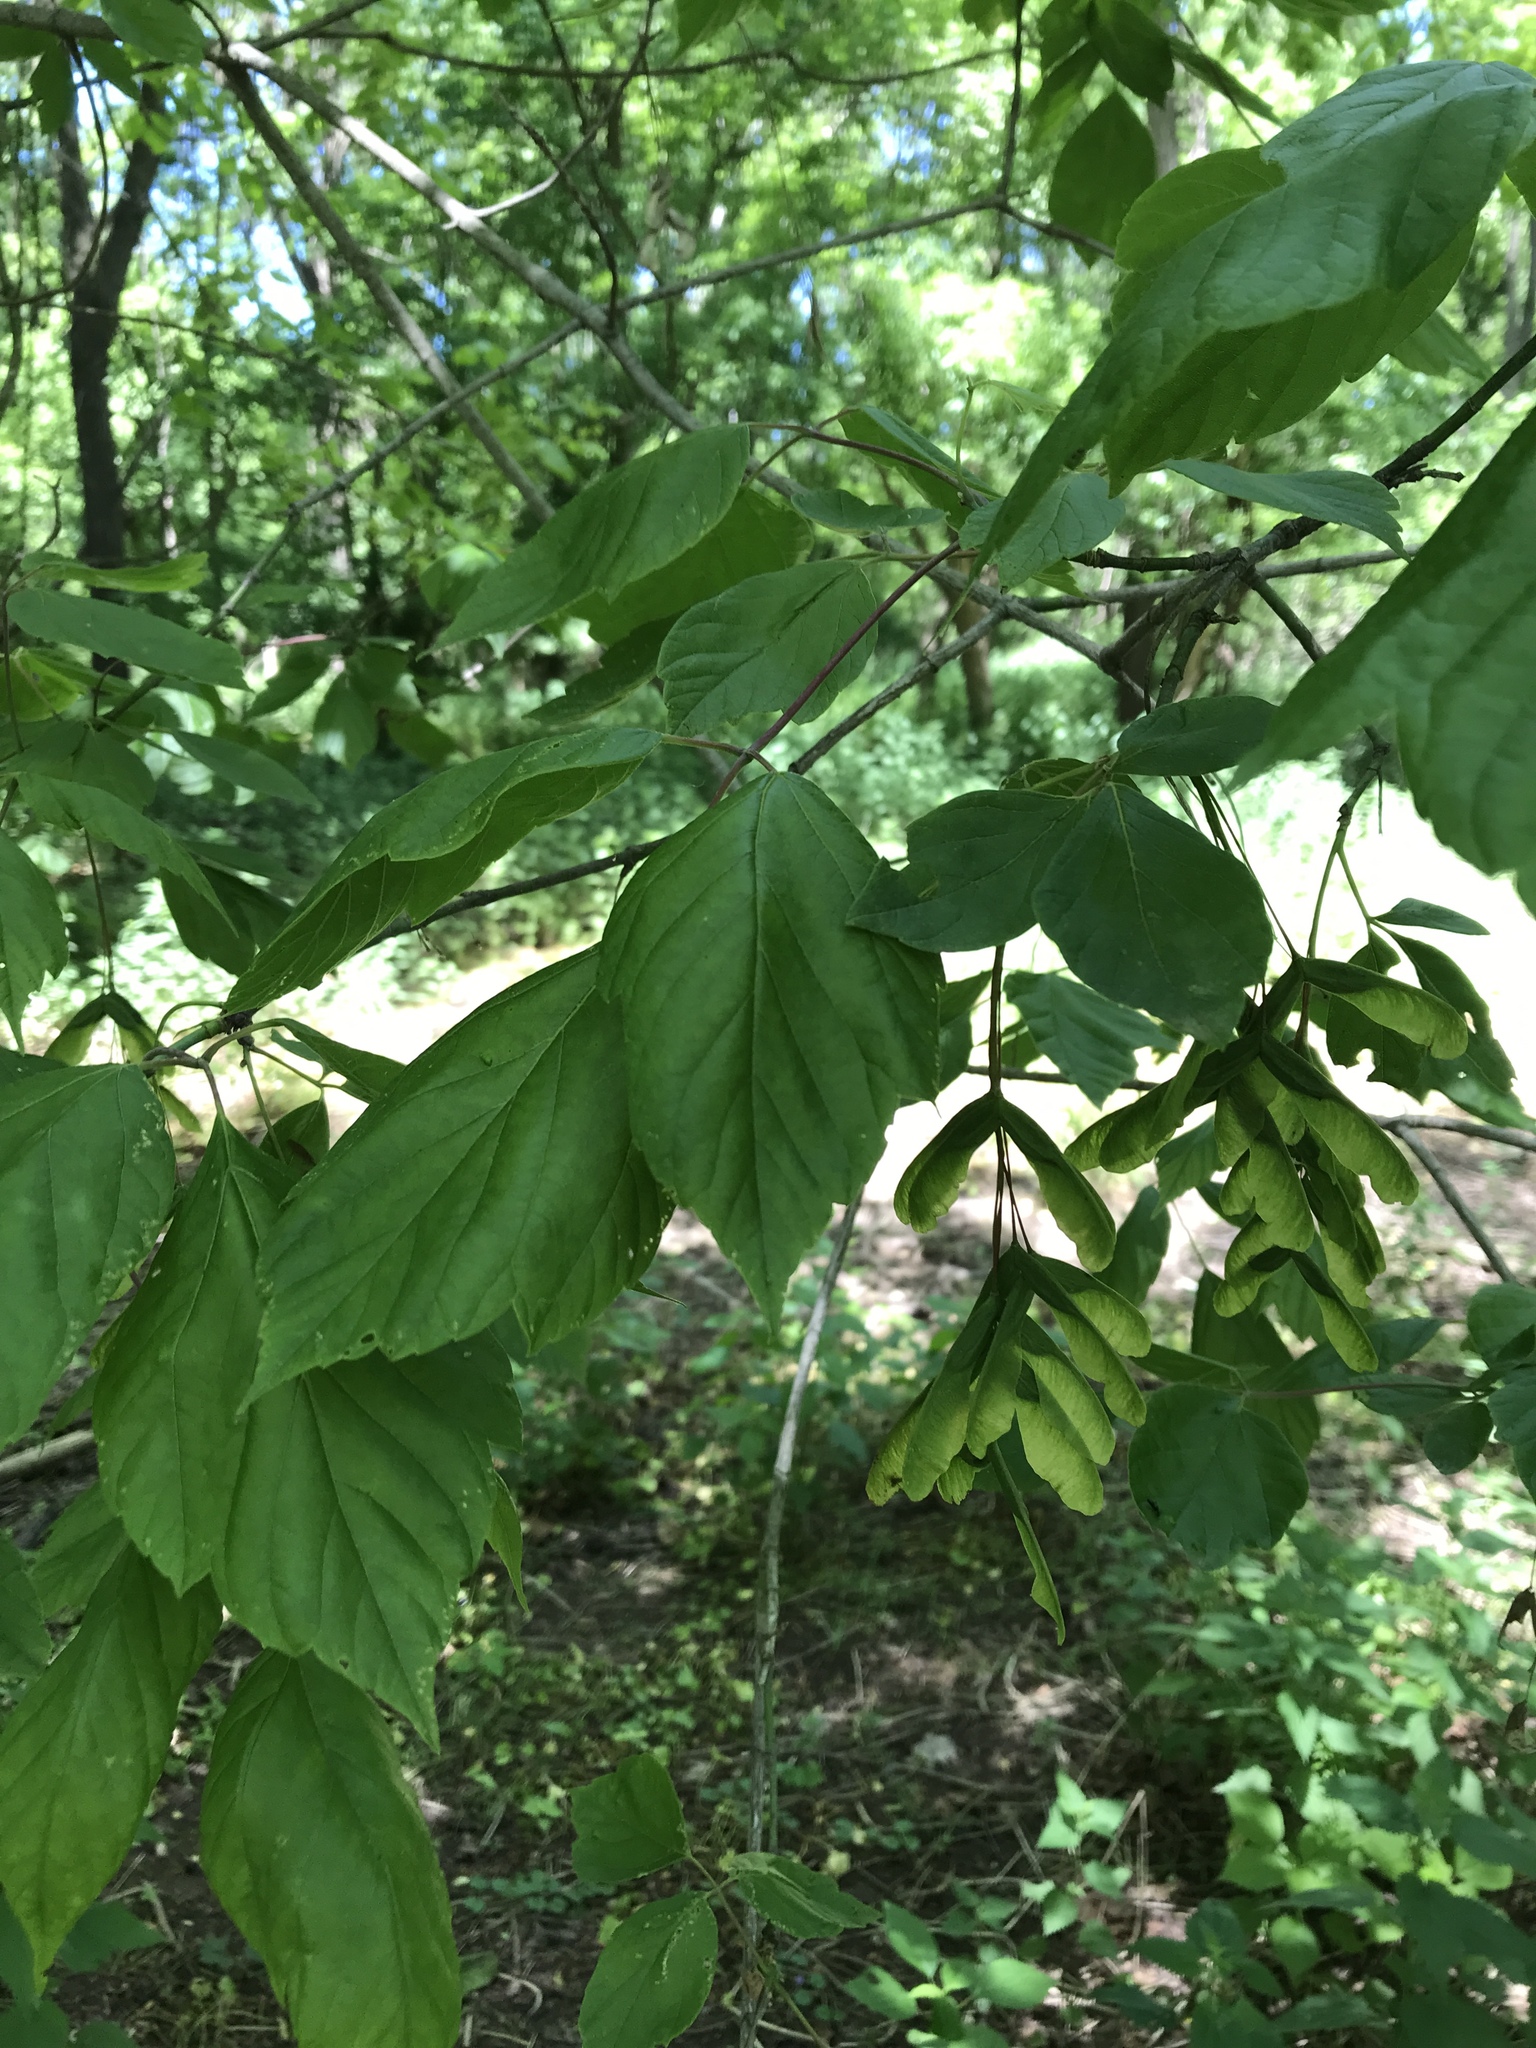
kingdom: Plantae
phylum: Tracheophyta
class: Magnoliopsida
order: Sapindales
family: Sapindaceae
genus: Acer
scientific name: Acer negundo
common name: Ashleaf maple
